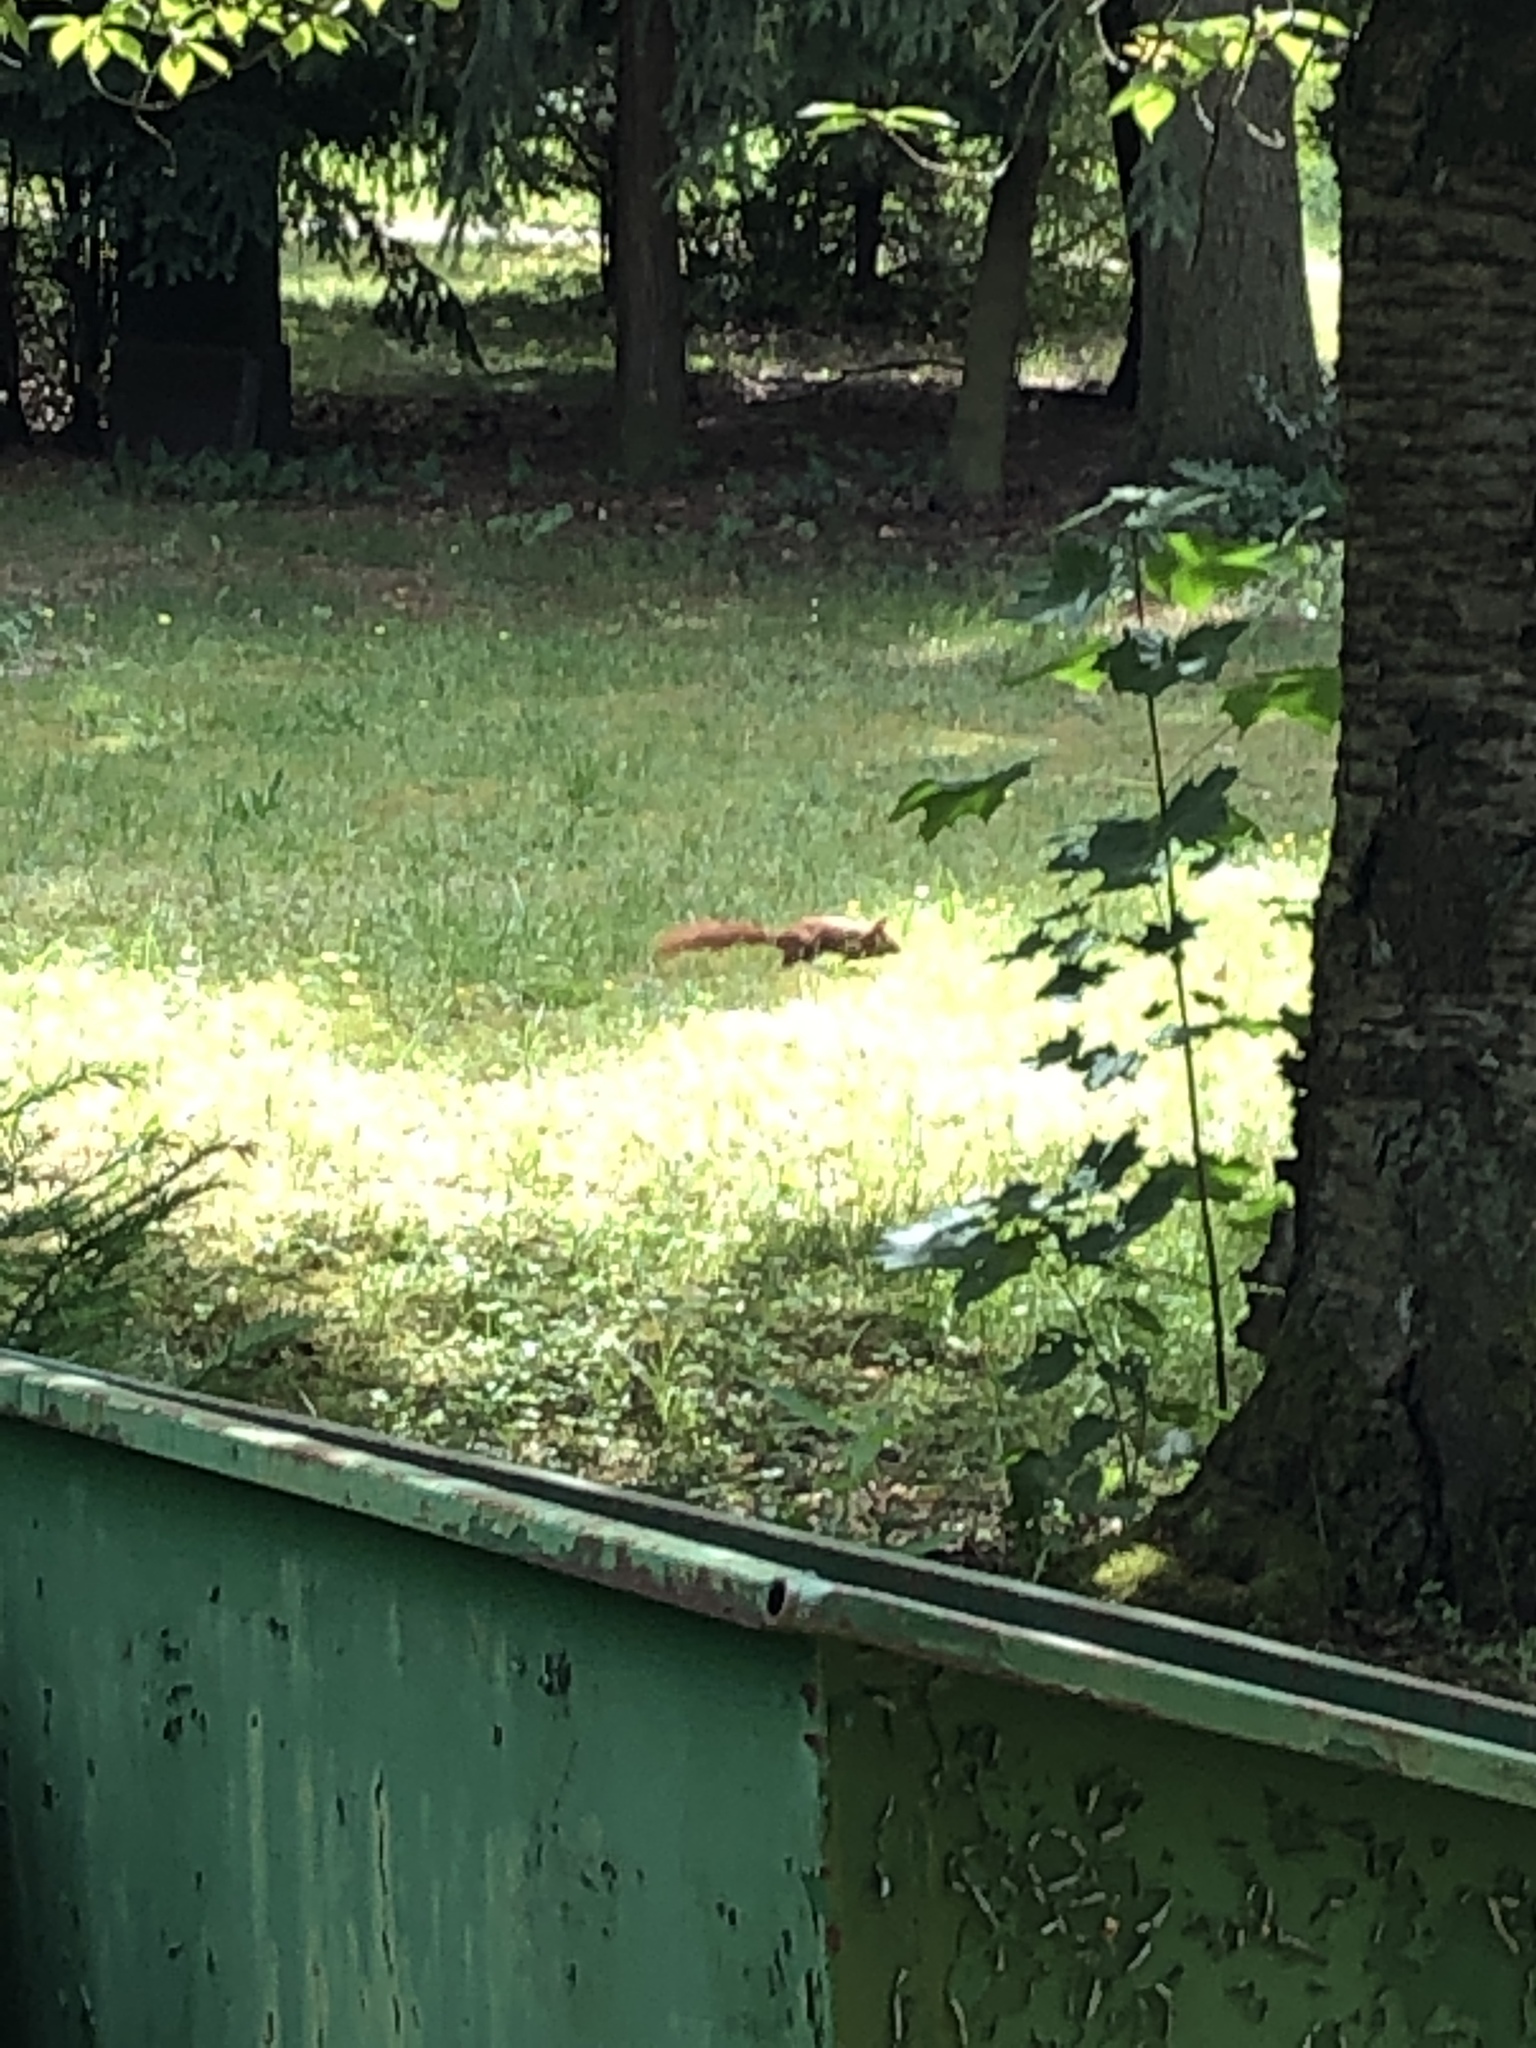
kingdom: Animalia
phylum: Chordata
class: Mammalia
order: Rodentia
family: Sciuridae
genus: Sciurus
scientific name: Sciurus vulgaris
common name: Eurasian red squirrel
